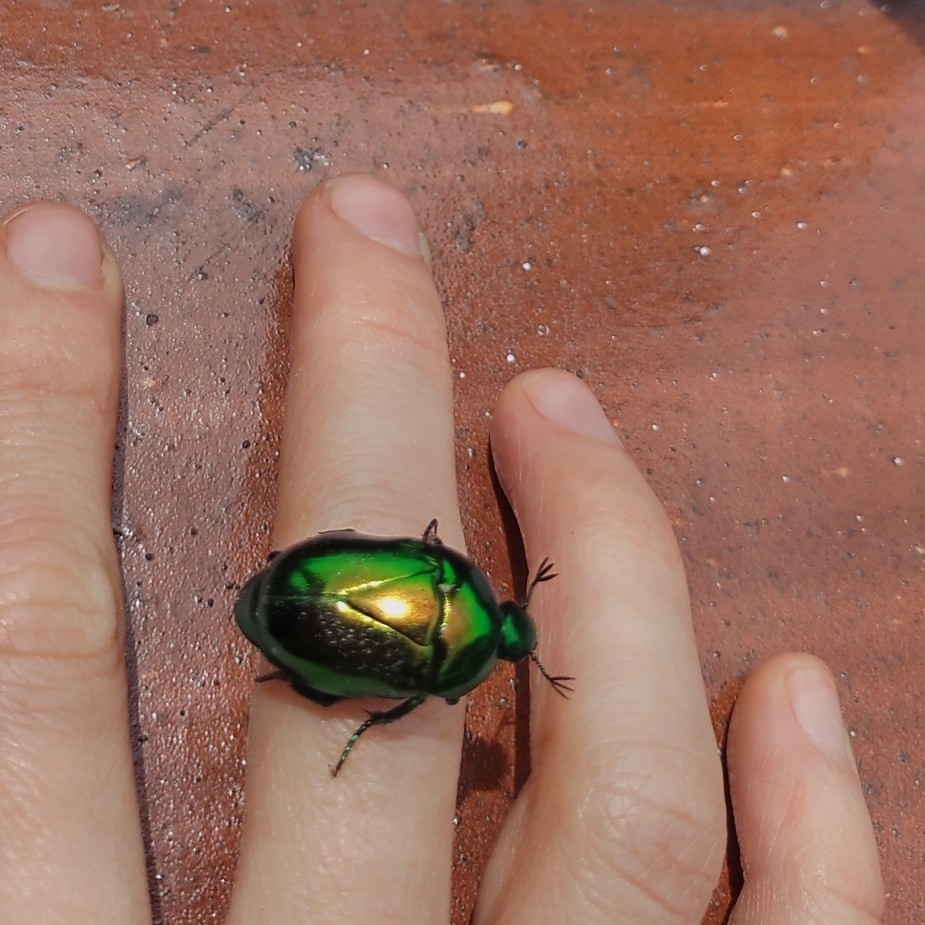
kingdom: Animalia
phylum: Arthropoda
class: Insecta
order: Coleoptera
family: Scarabaeidae
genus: Macraspis
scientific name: Macraspis chrysis
